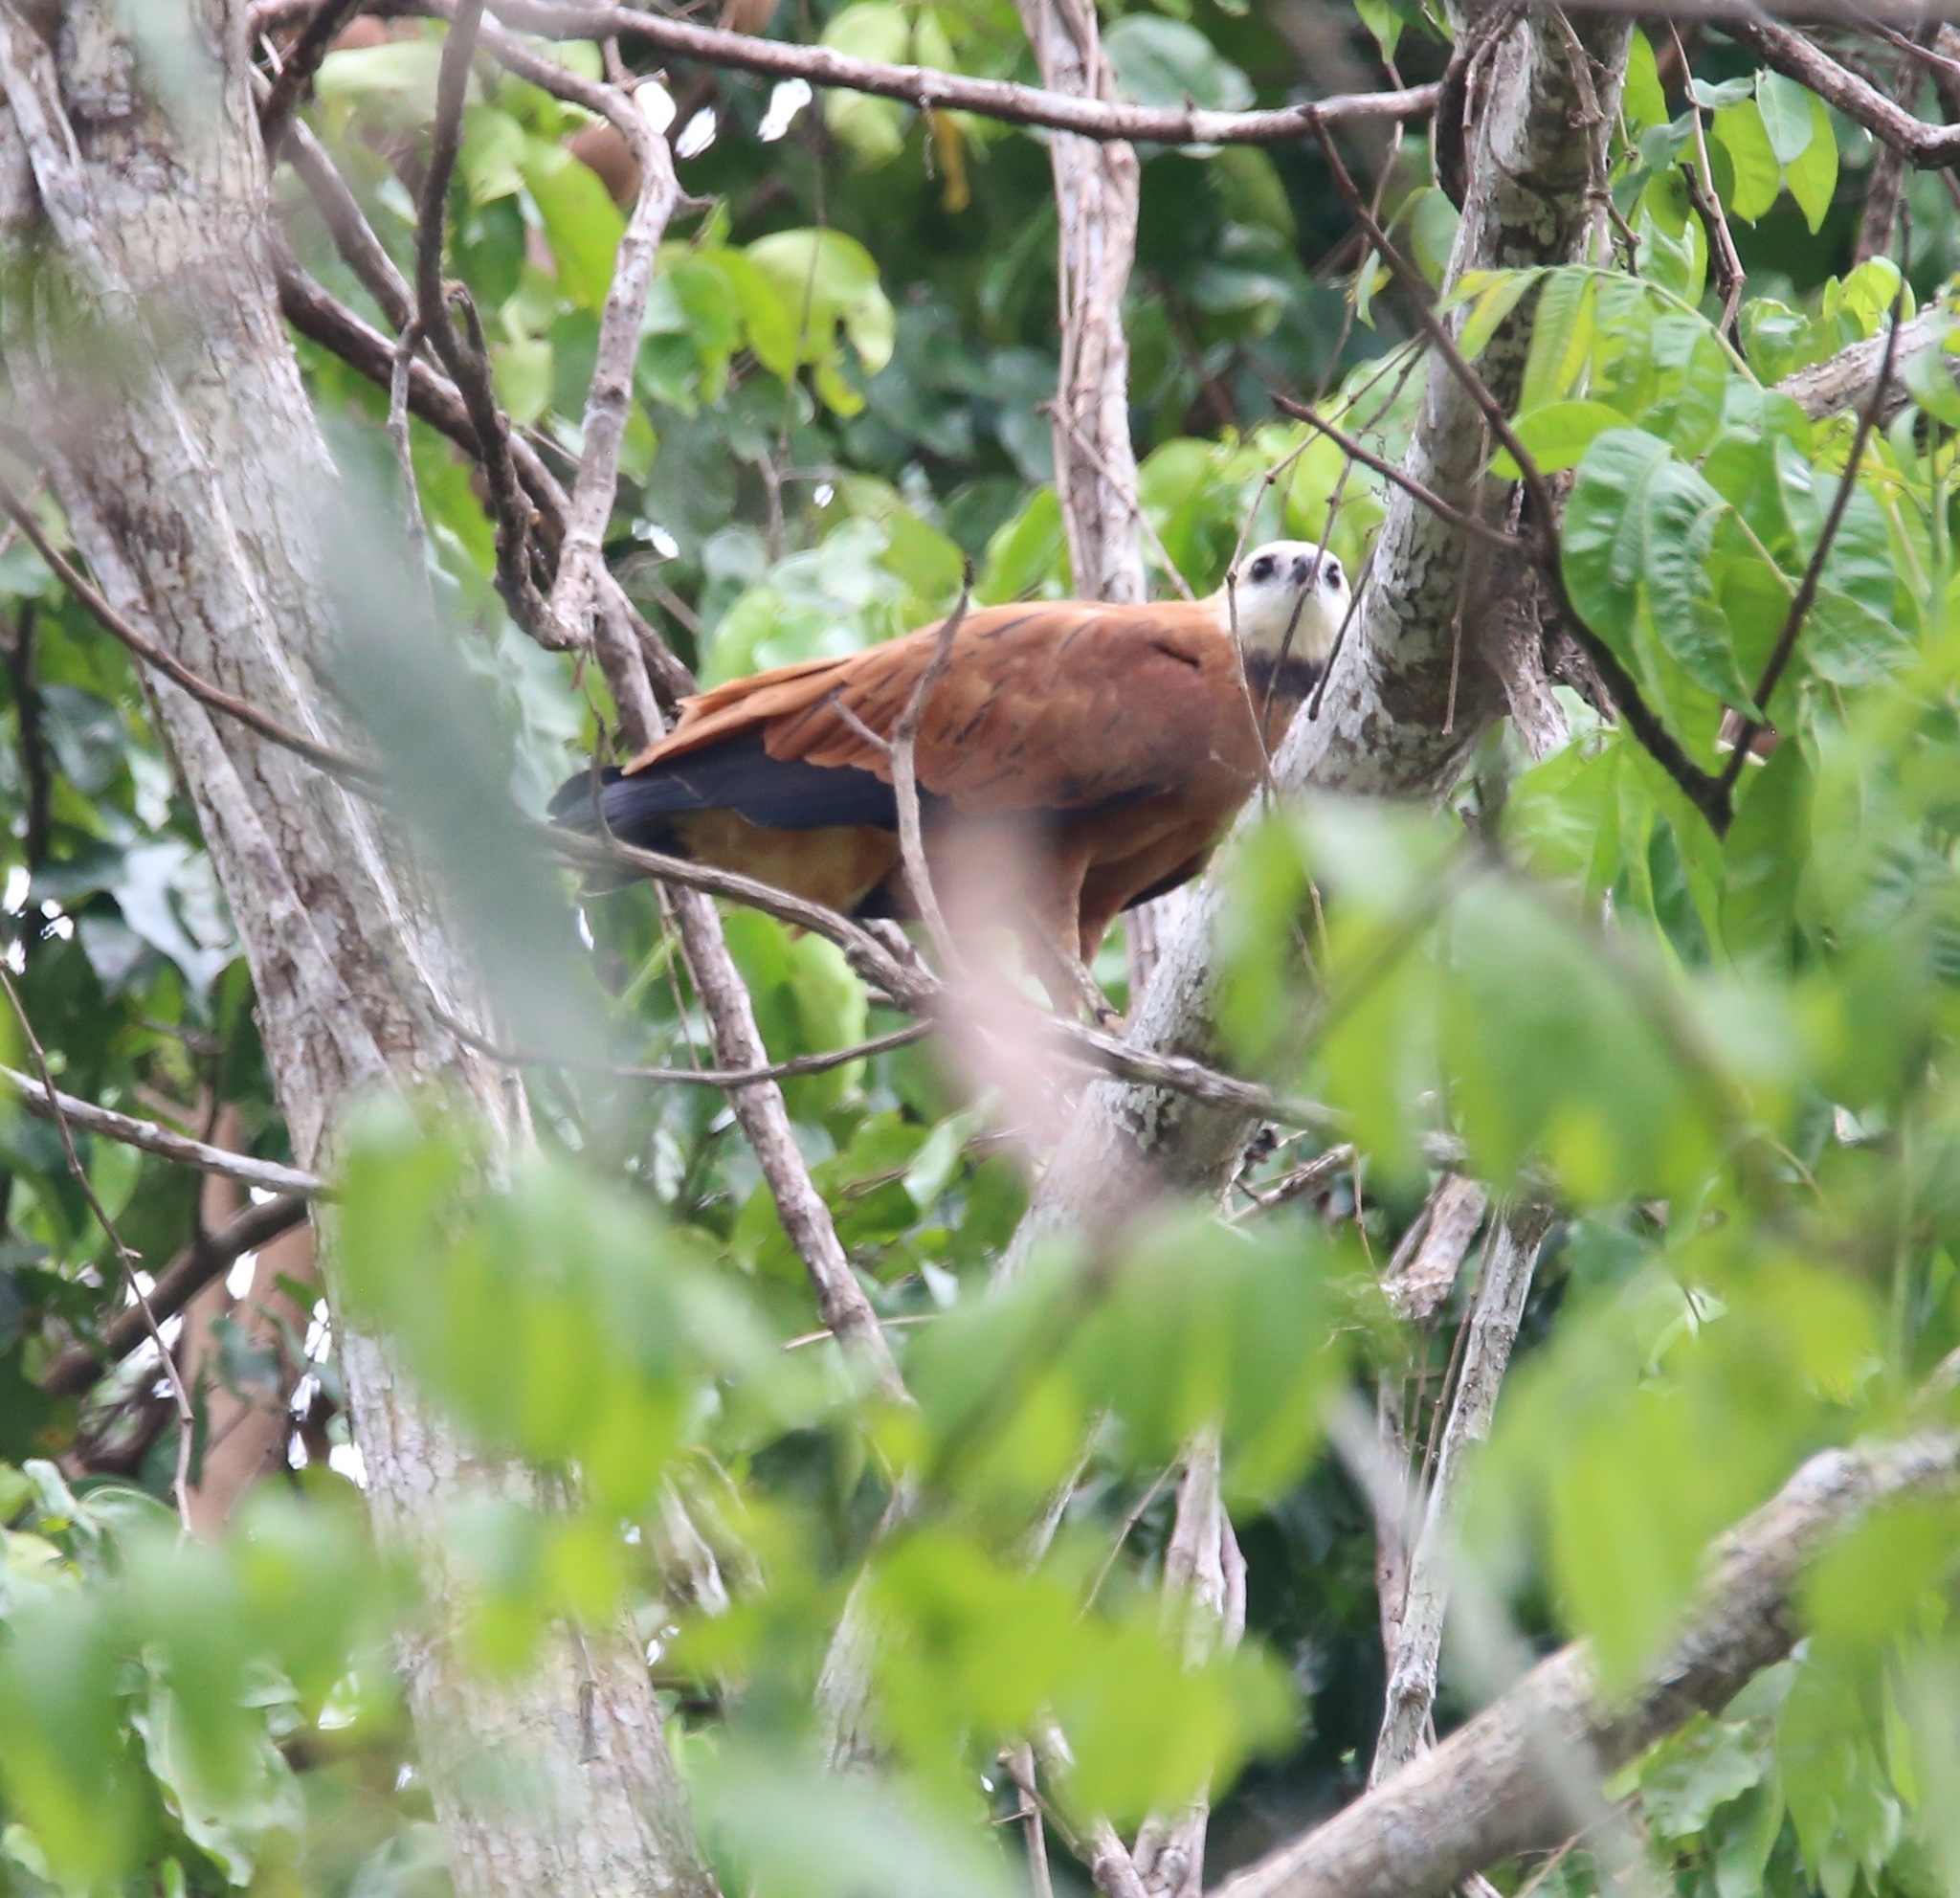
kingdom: Animalia
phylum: Chordata
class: Aves
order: Accipitriformes
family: Accipitridae
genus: Busarellus
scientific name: Busarellus nigricollis
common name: Black-collared hawk
